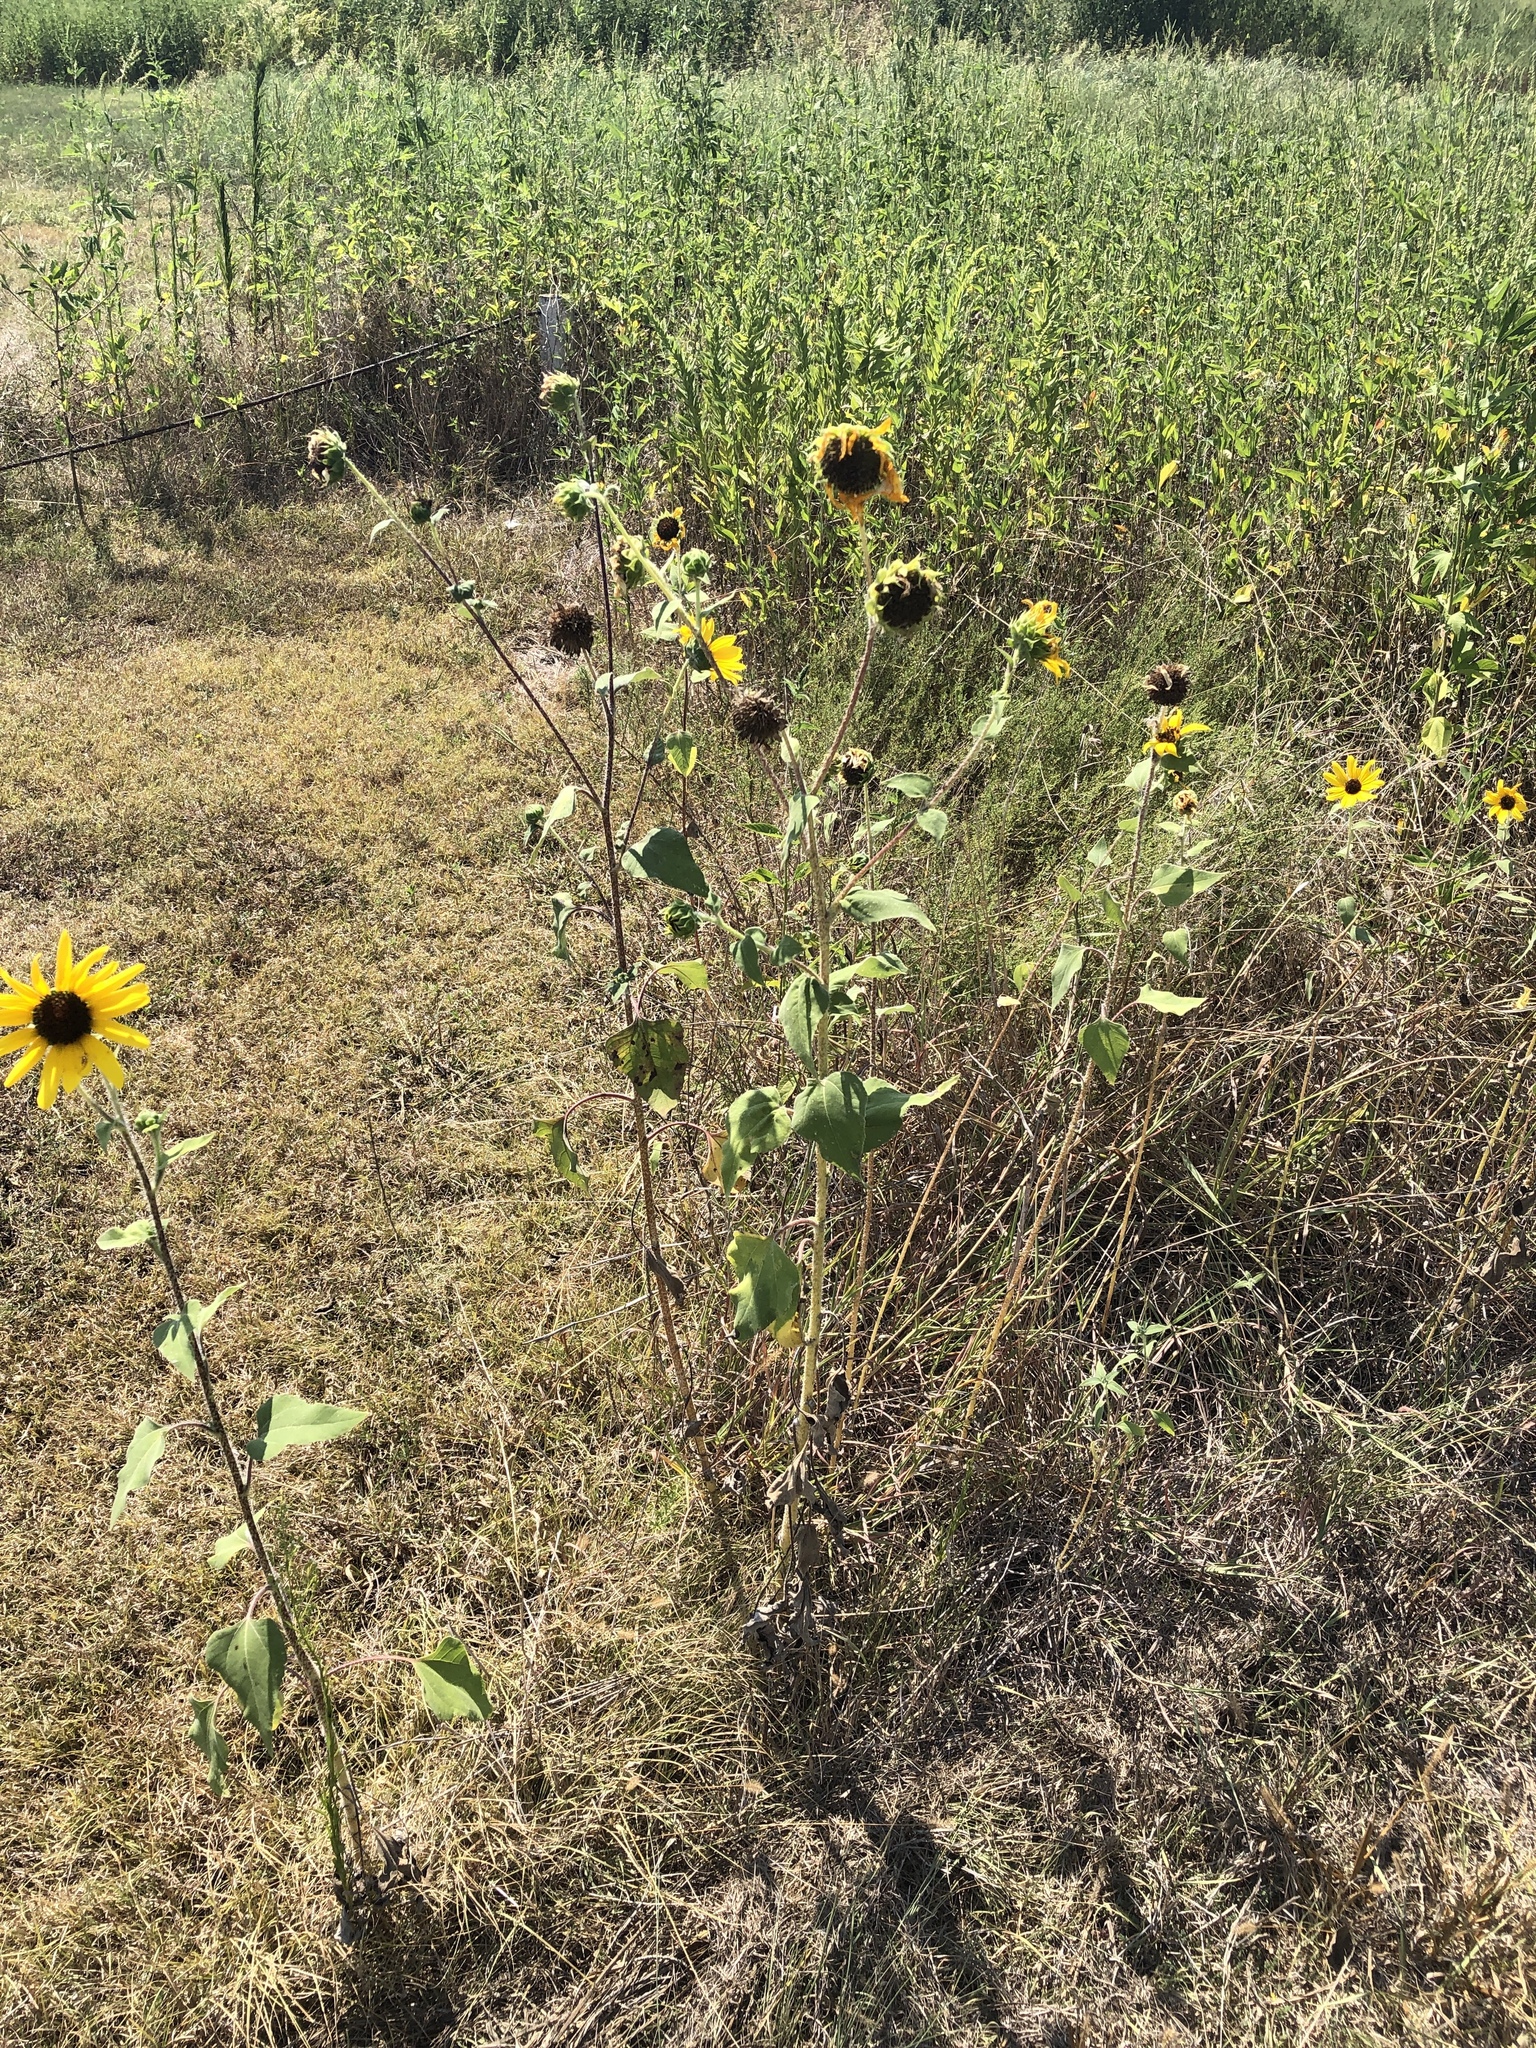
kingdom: Plantae
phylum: Tracheophyta
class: Magnoliopsida
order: Asterales
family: Asteraceae
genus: Helianthus
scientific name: Helianthus annuus
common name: Sunflower
